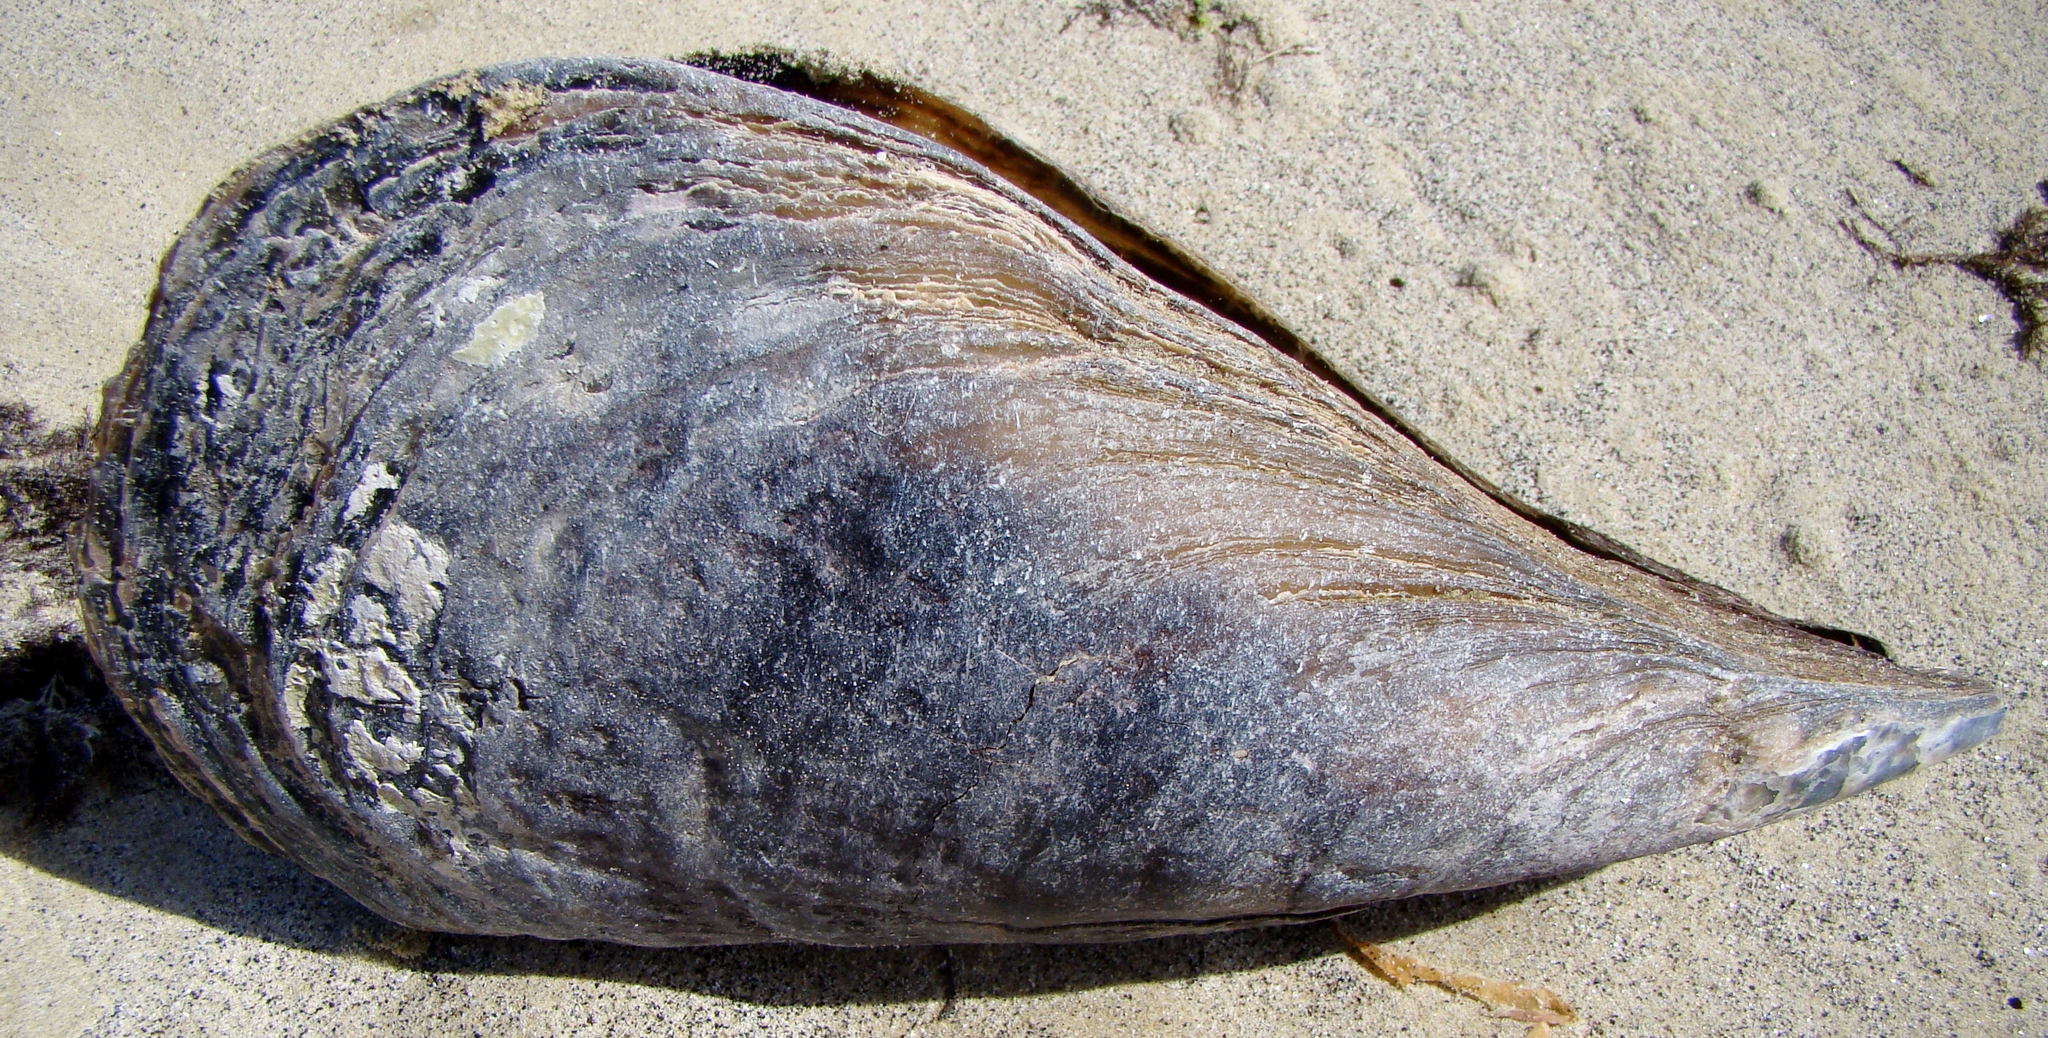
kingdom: Animalia
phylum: Mollusca
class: Bivalvia
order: Ostreida
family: Pinnidae
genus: Atrina
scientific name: Atrina zelandica
